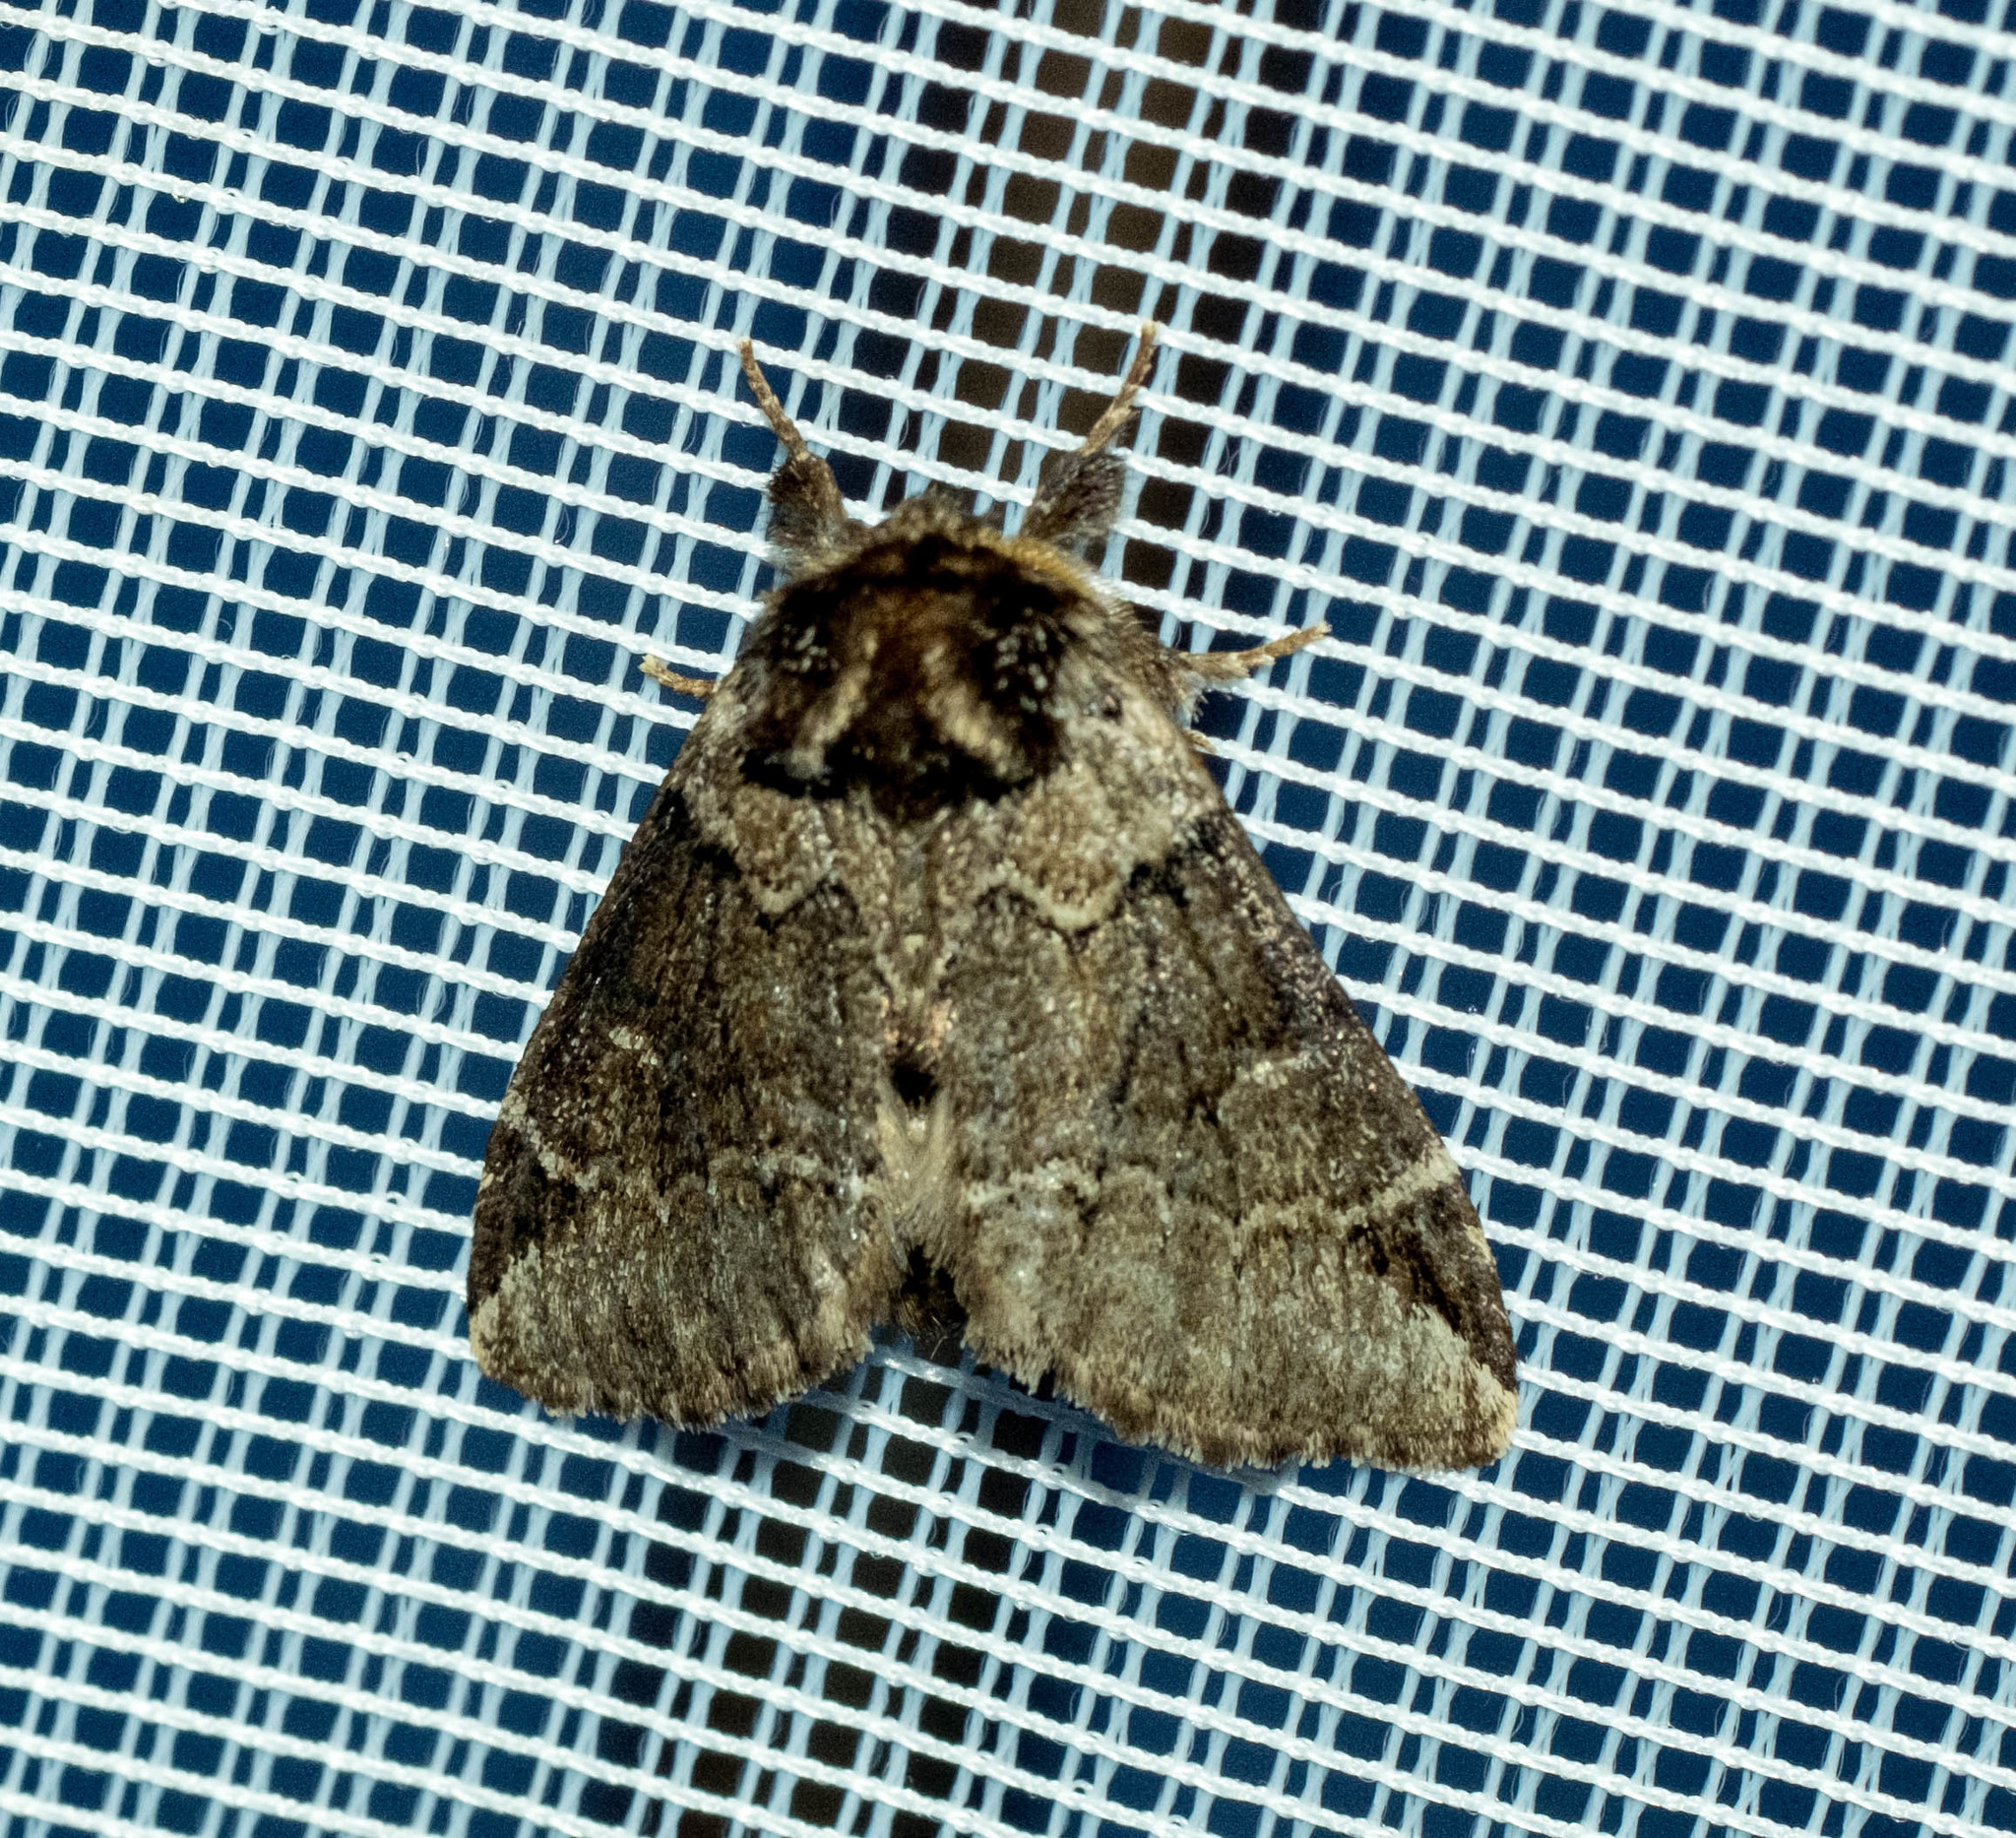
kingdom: Animalia
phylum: Arthropoda
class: Insecta
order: Lepidoptera
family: Notodontidae
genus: Drymonia
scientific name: Drymonia obliterata
